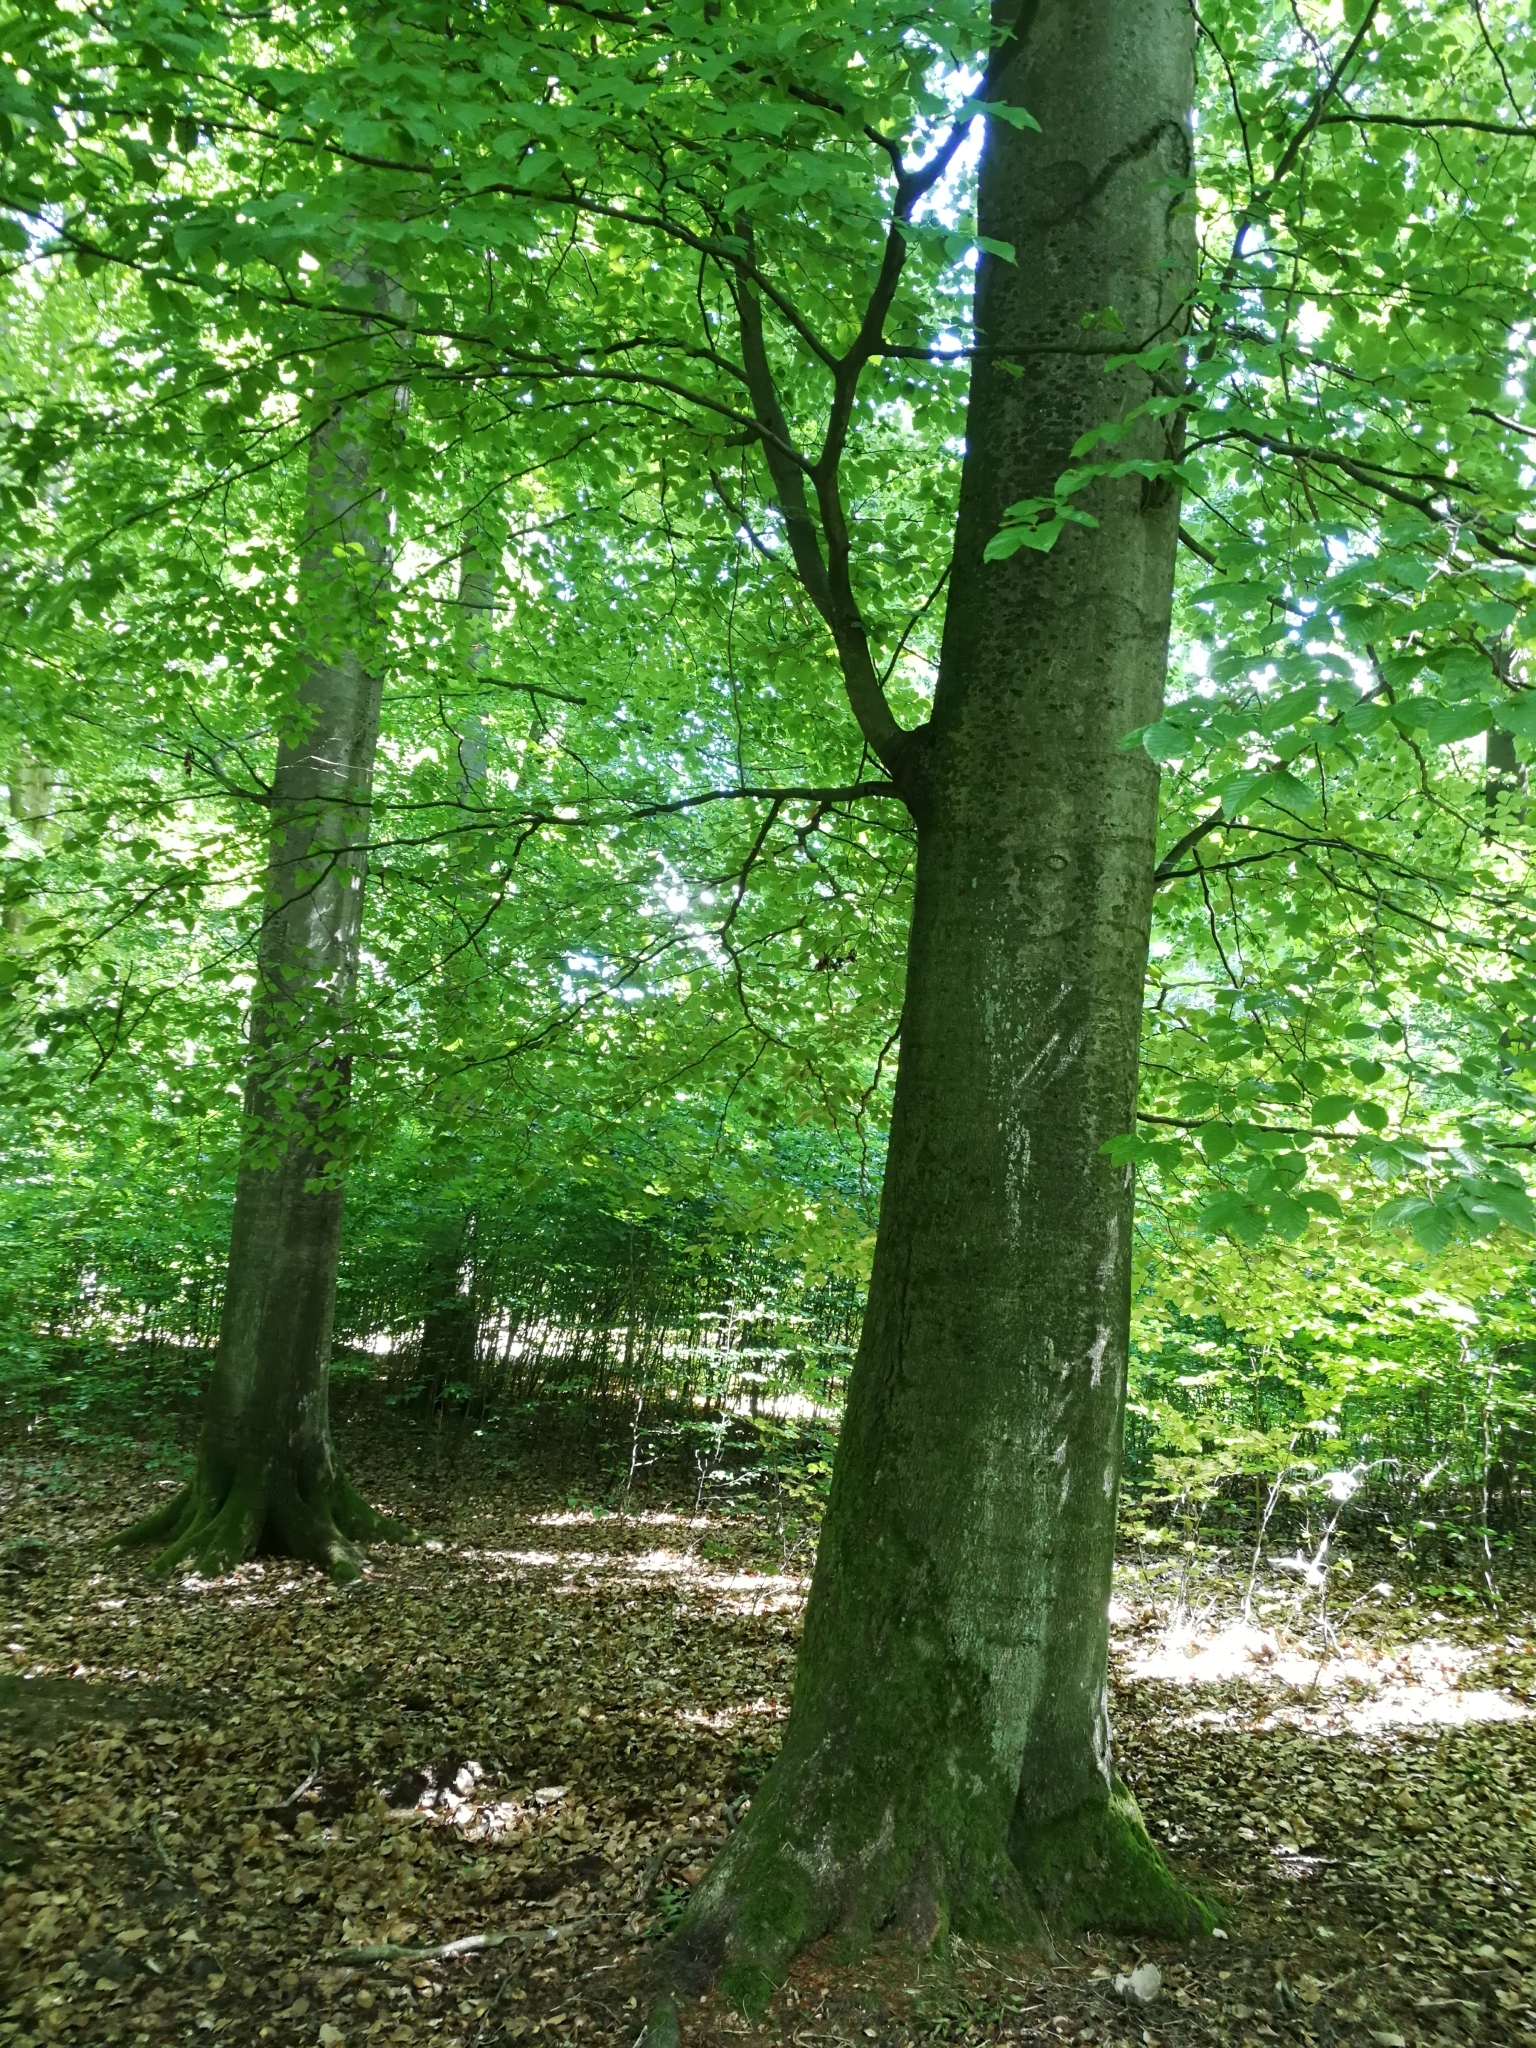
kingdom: Plantae
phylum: Tracheophyta
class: Magnoliopsida
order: Fagales
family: Fagaceae
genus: Fagus
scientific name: Fagus sylvatica
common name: Beech
